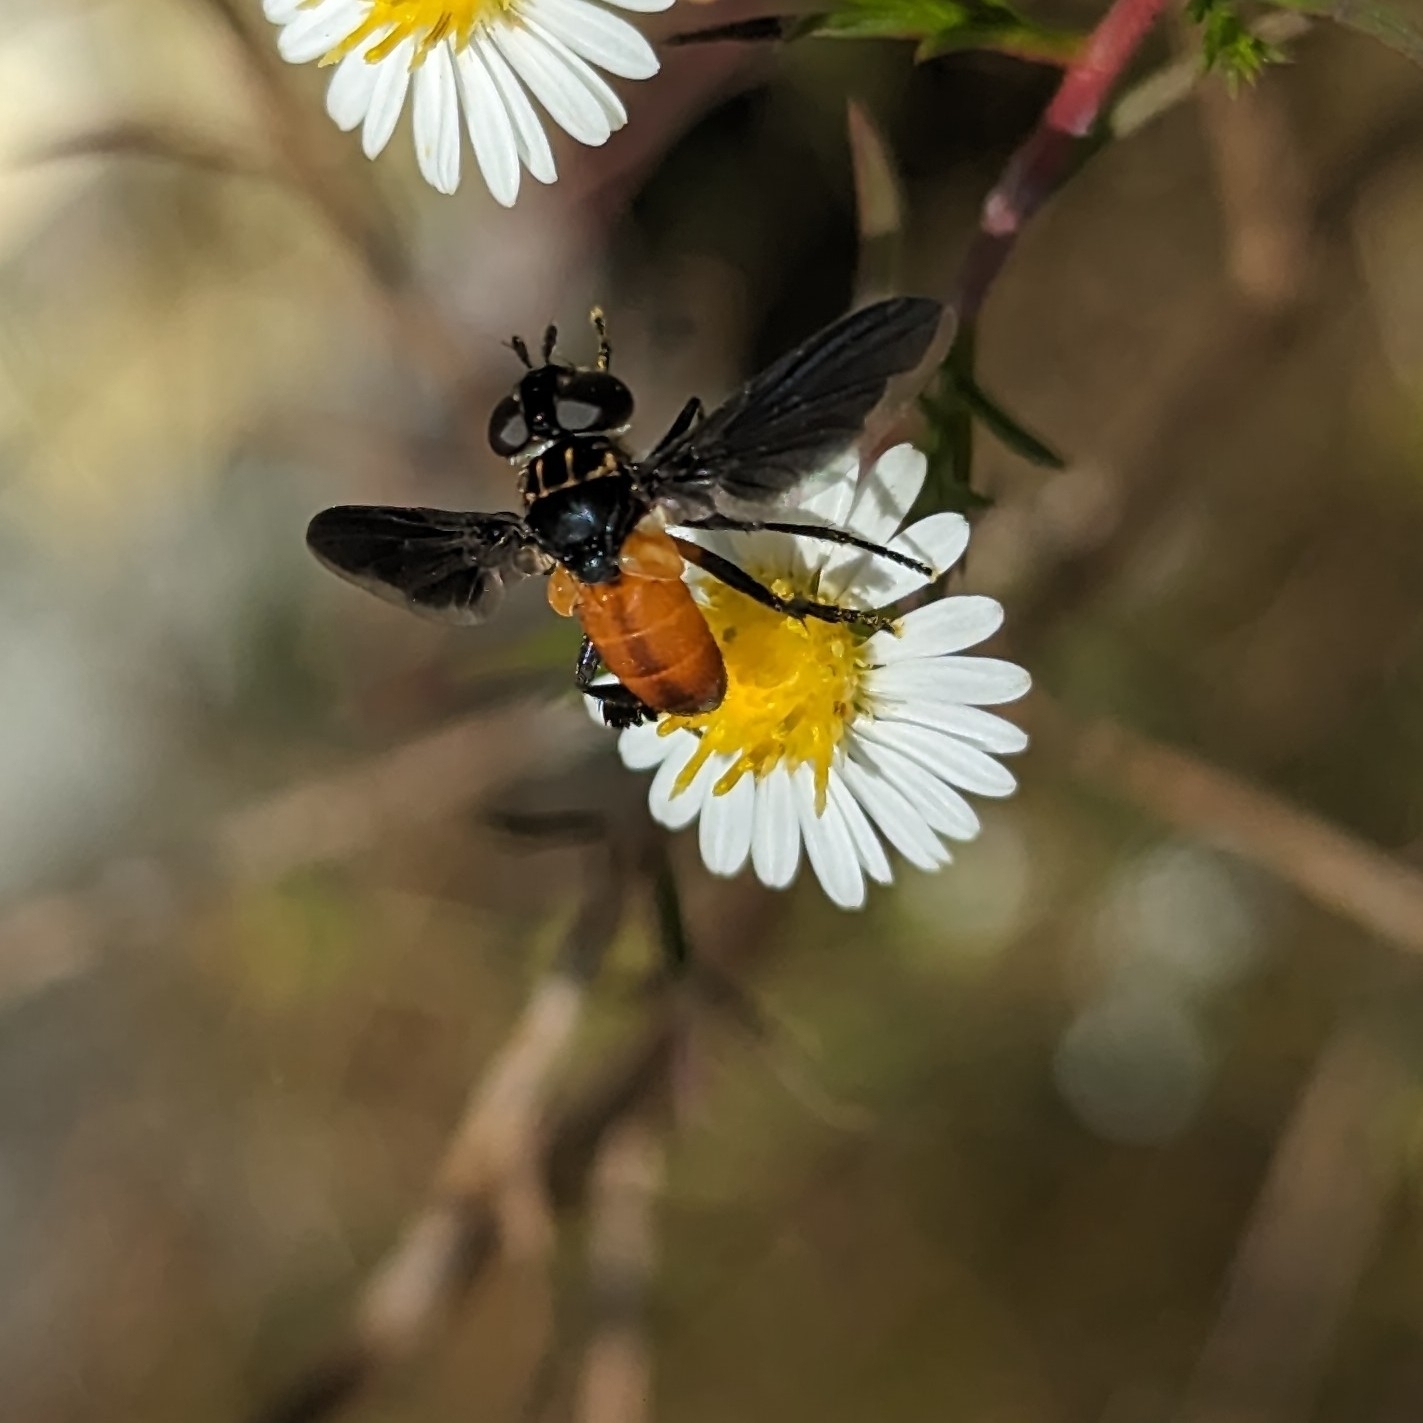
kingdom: Animalia
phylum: Arthropoda
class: Insecta
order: Diptera
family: Tachinidae
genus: Trichopoda
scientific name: Trichopoda pennipes
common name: Tachinid fly
